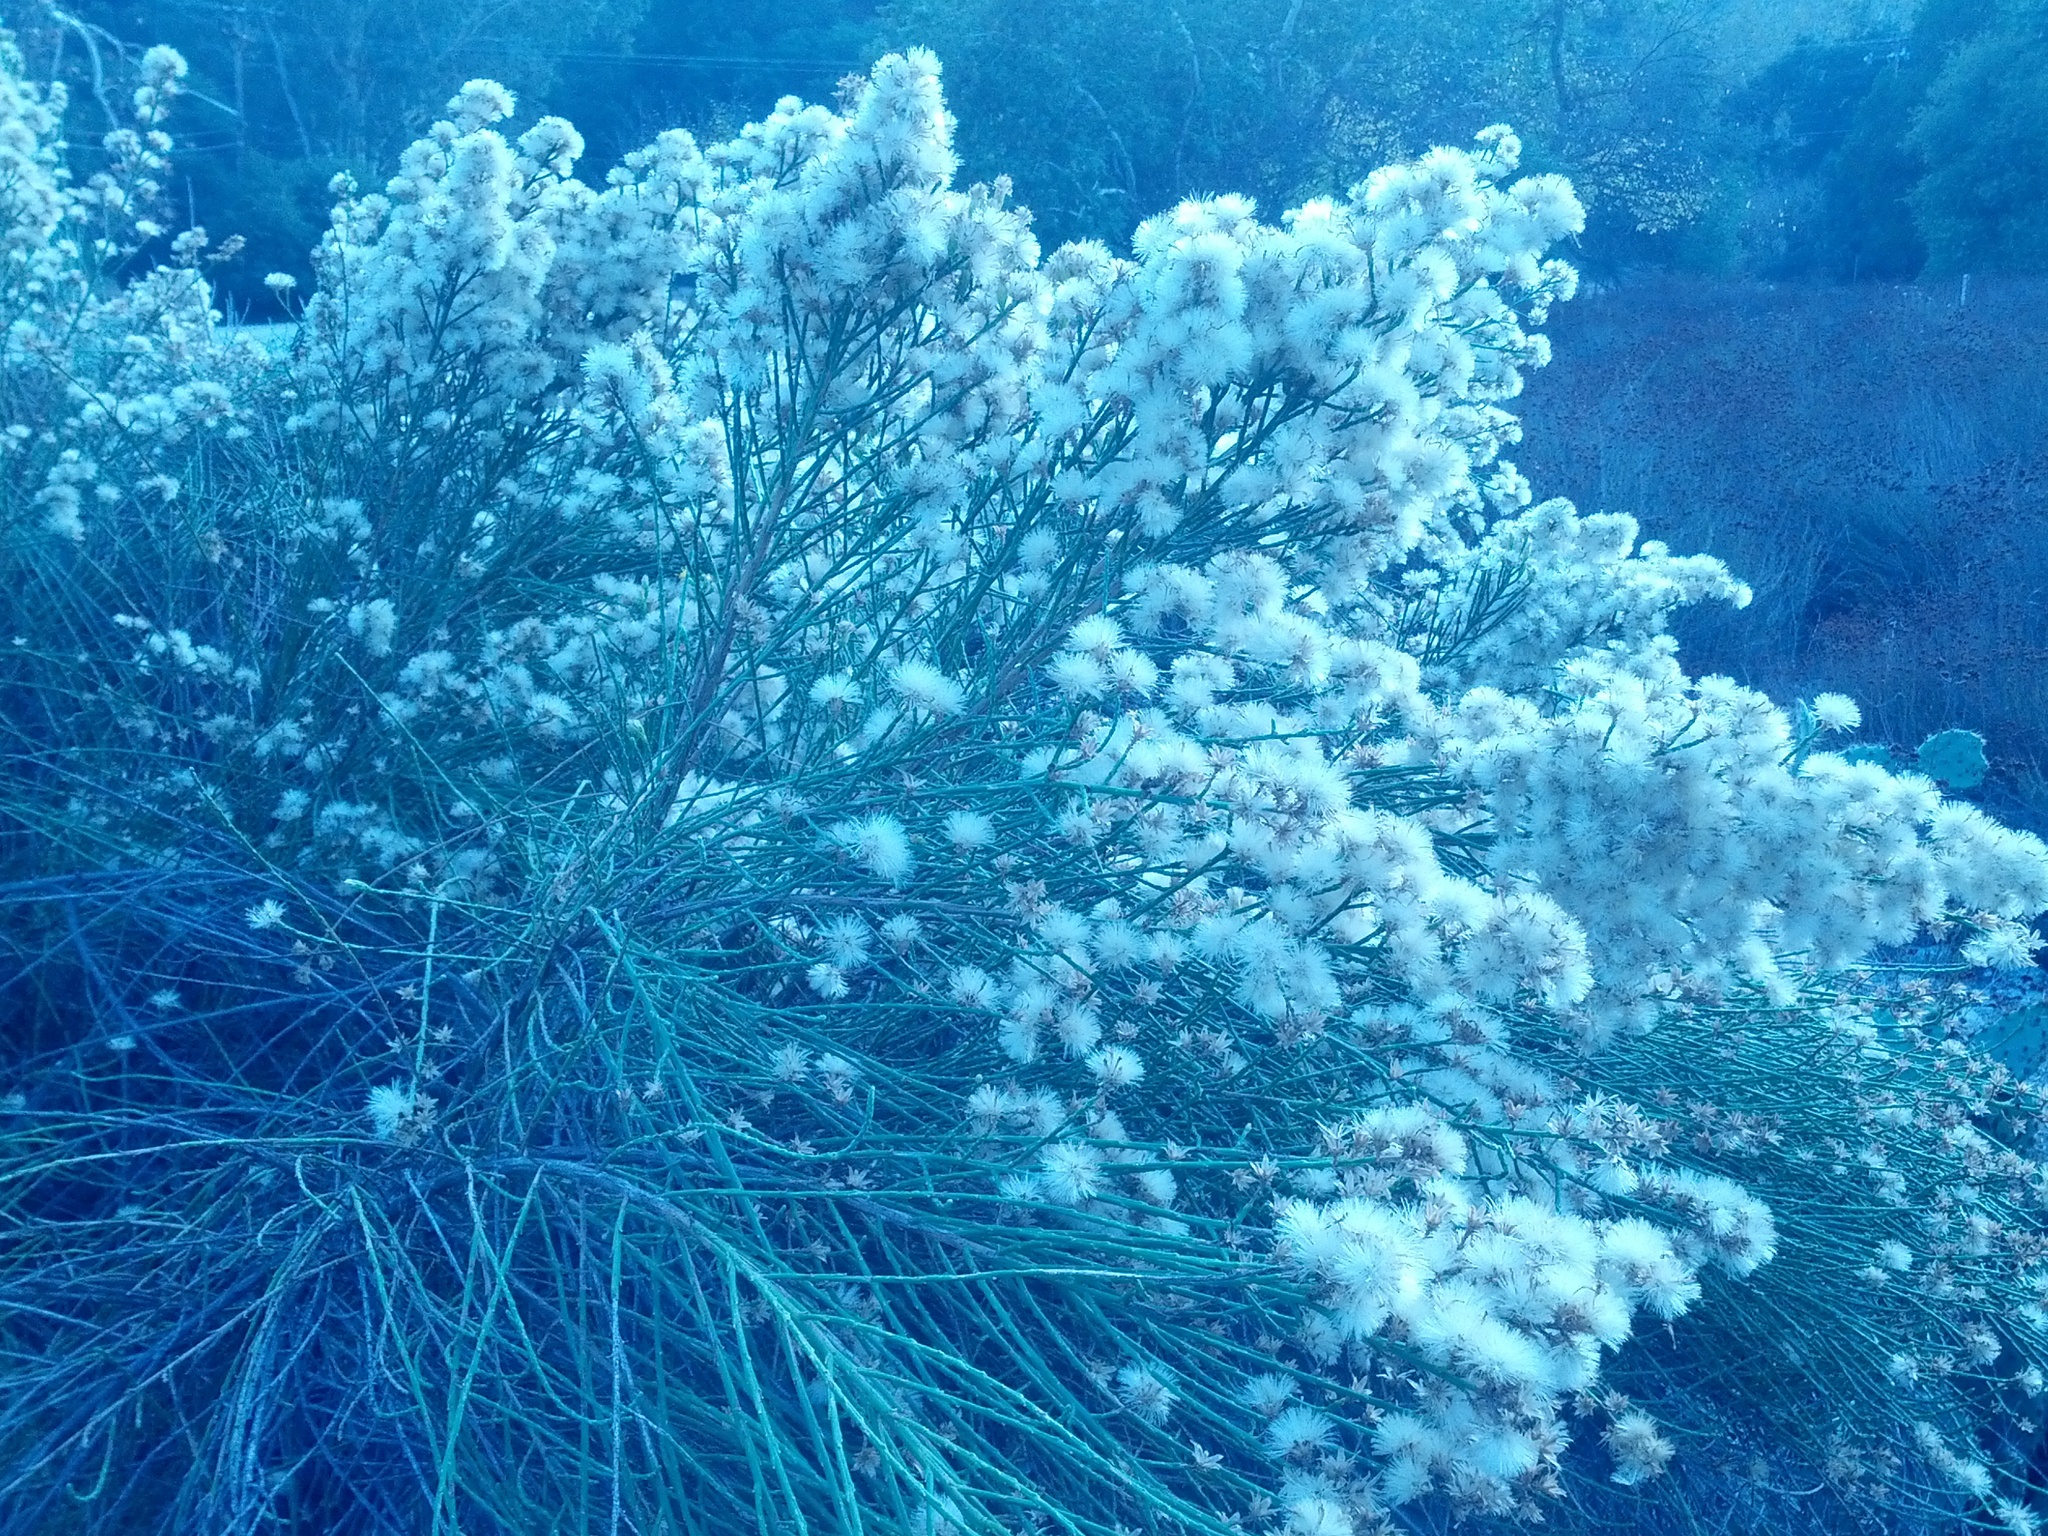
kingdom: Plantae
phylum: Tracheophyta
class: Magnoliopsida
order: Asterales
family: Asteraceae
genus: Lepidospartum
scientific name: Lepidospartum squamatum
